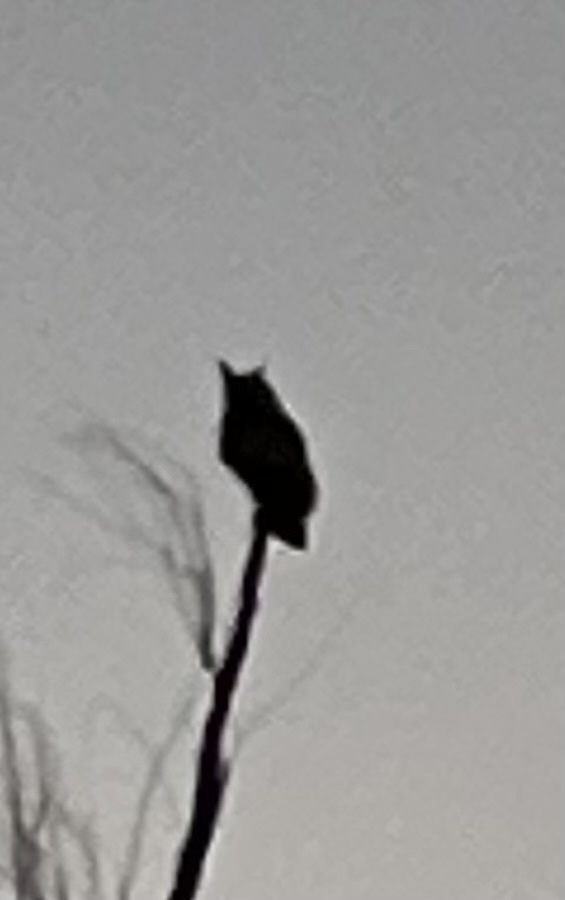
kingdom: Animalia
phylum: Chordata
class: Aves
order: Strigiformes
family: Strigidae
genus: Bubo
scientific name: Bubo virginianus
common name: Great horned owl
